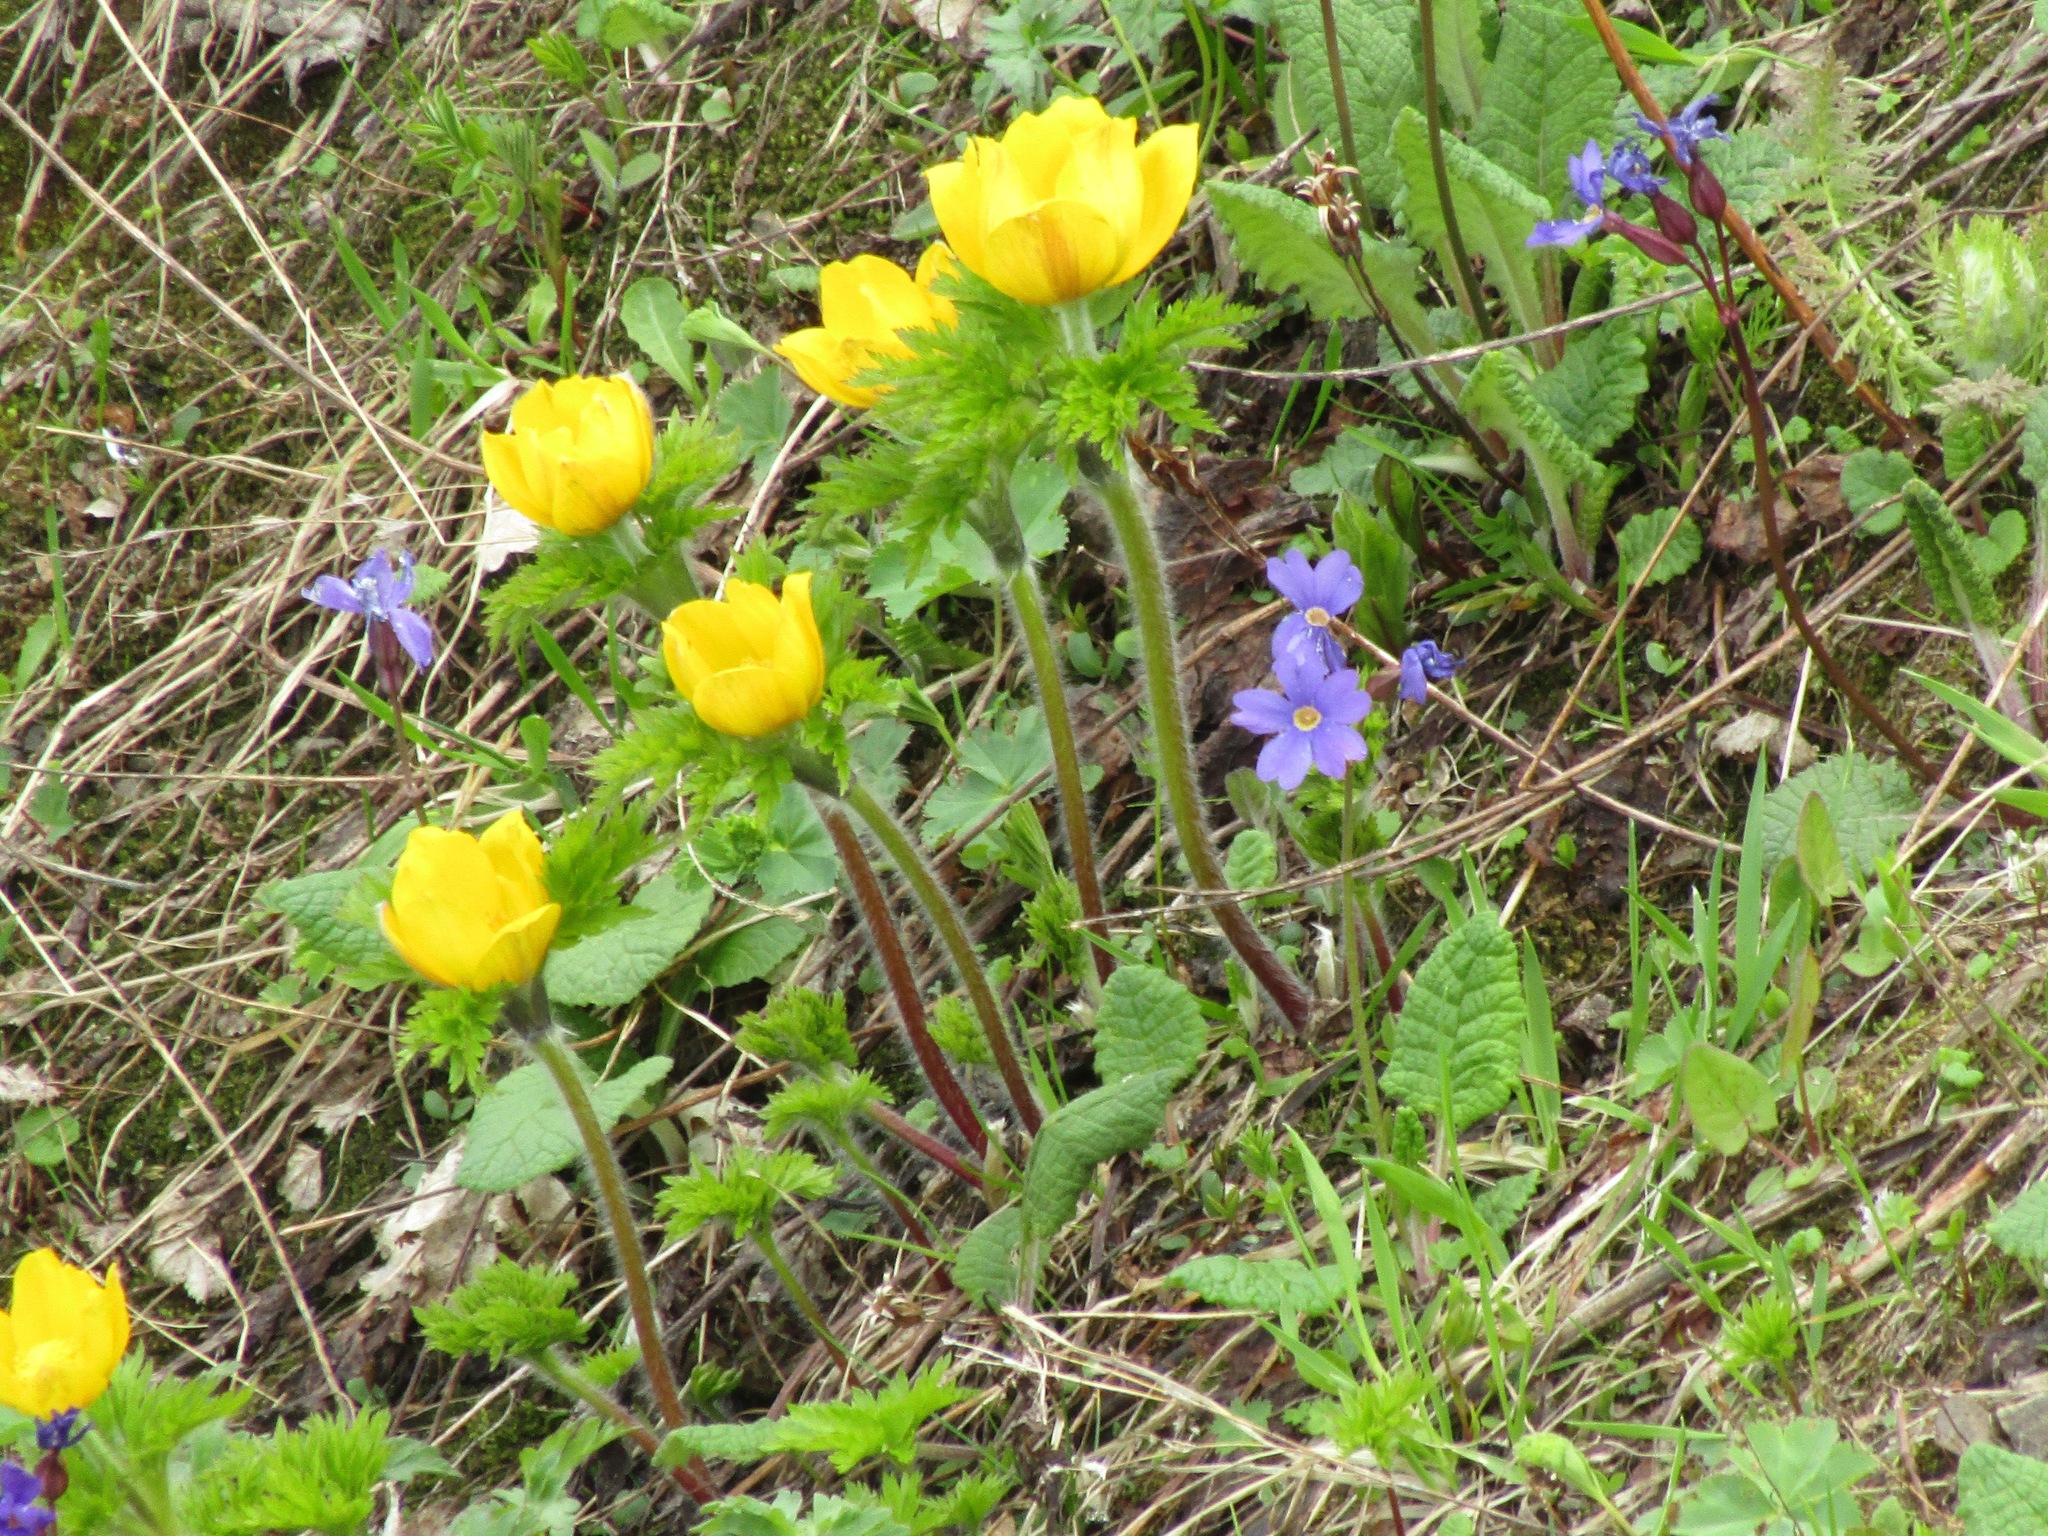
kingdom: Plantae
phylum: Tracheophyta
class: Magnoliopsida
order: Ranunculales
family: Ranunculaceae
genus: Pulsatilla
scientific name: Pulsatilla aurea
